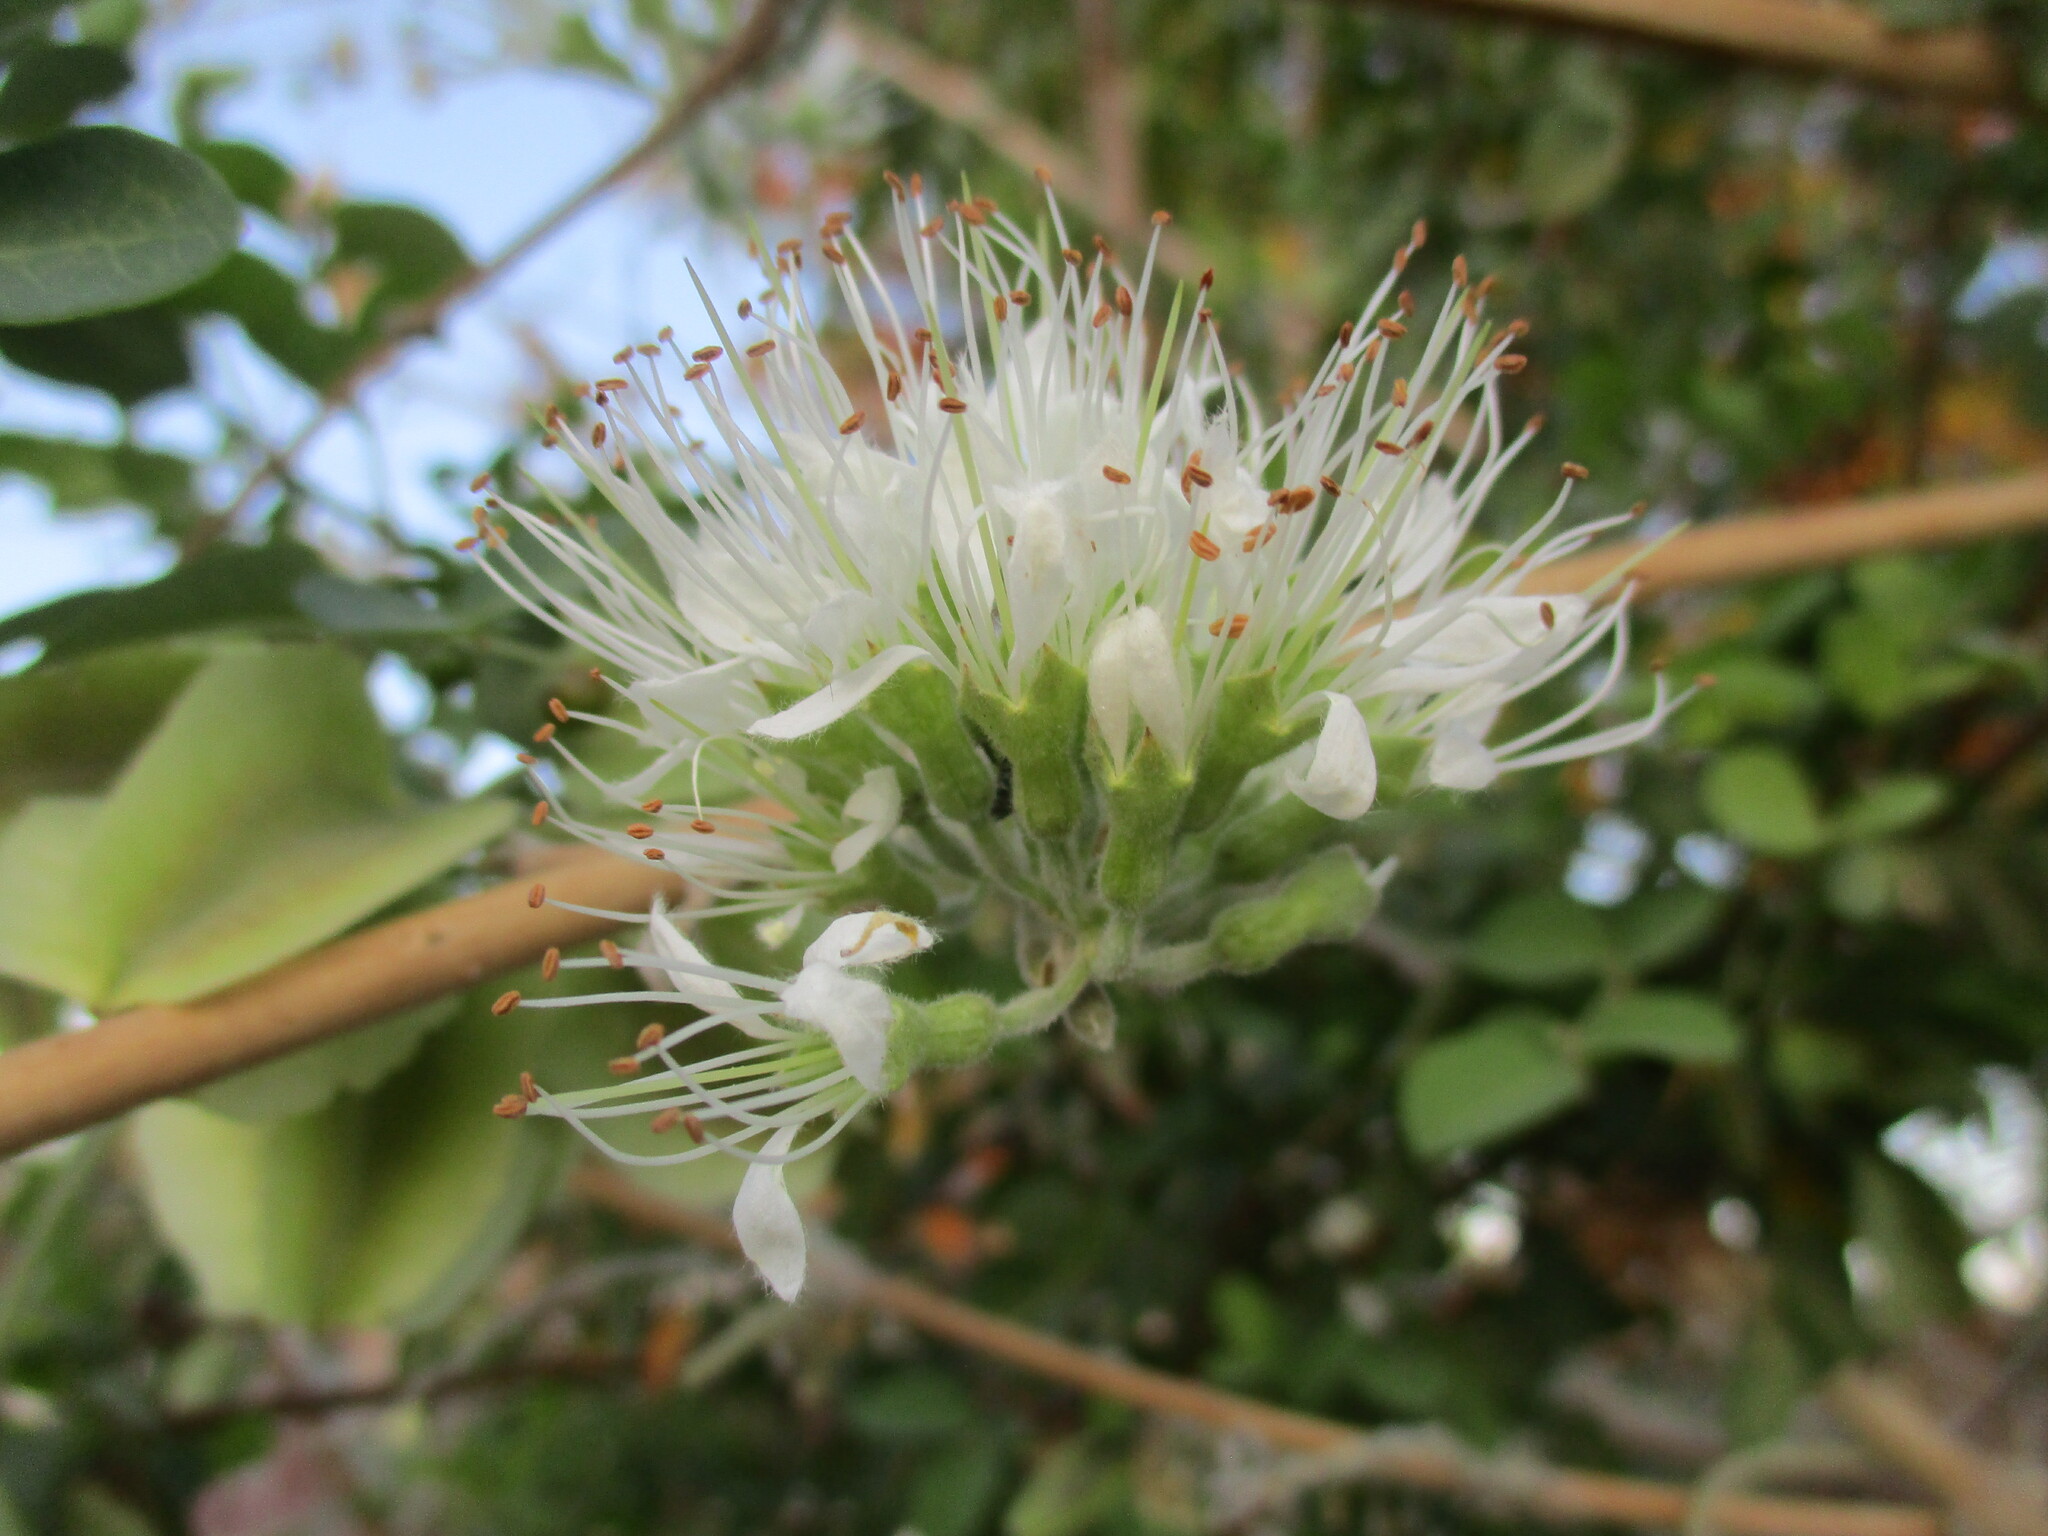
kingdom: Plantae
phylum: Tracheophyta
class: Magnoliopsida
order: Myrtales
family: Combretaceae
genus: Combretum
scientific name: Combretum mossambicense
